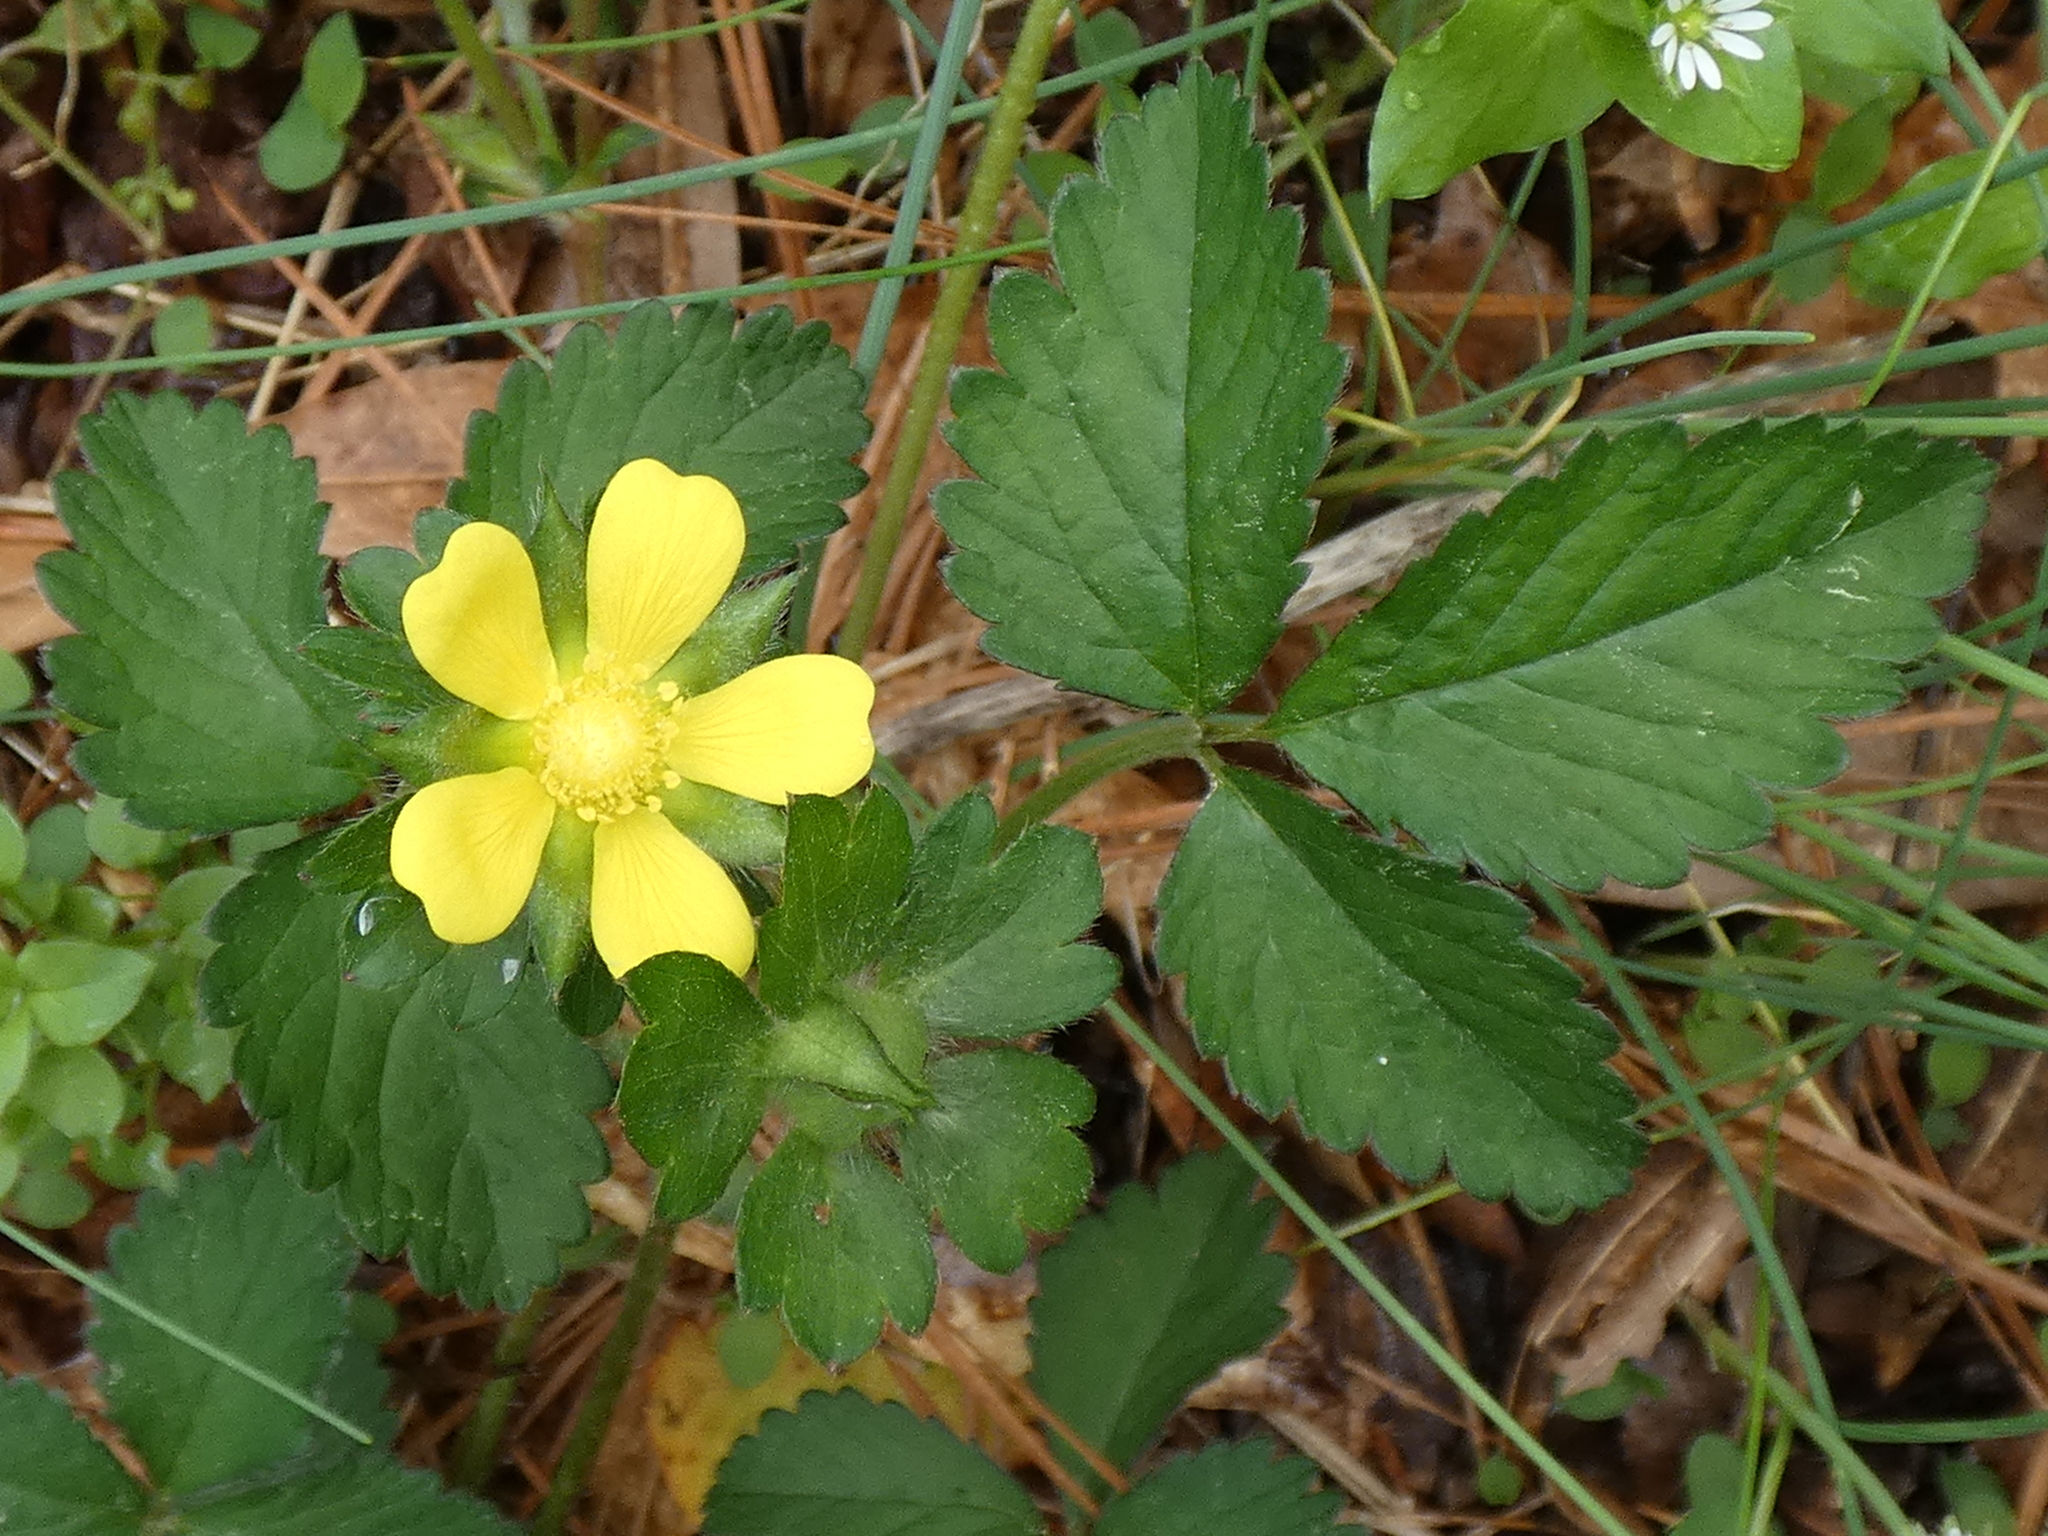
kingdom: Plantae
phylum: Tracheophyta
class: Magnoliopsida
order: Rosales
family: Rosaceae
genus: Potentilla
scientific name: Potentilla indica
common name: Yellow-flowered strawberry
